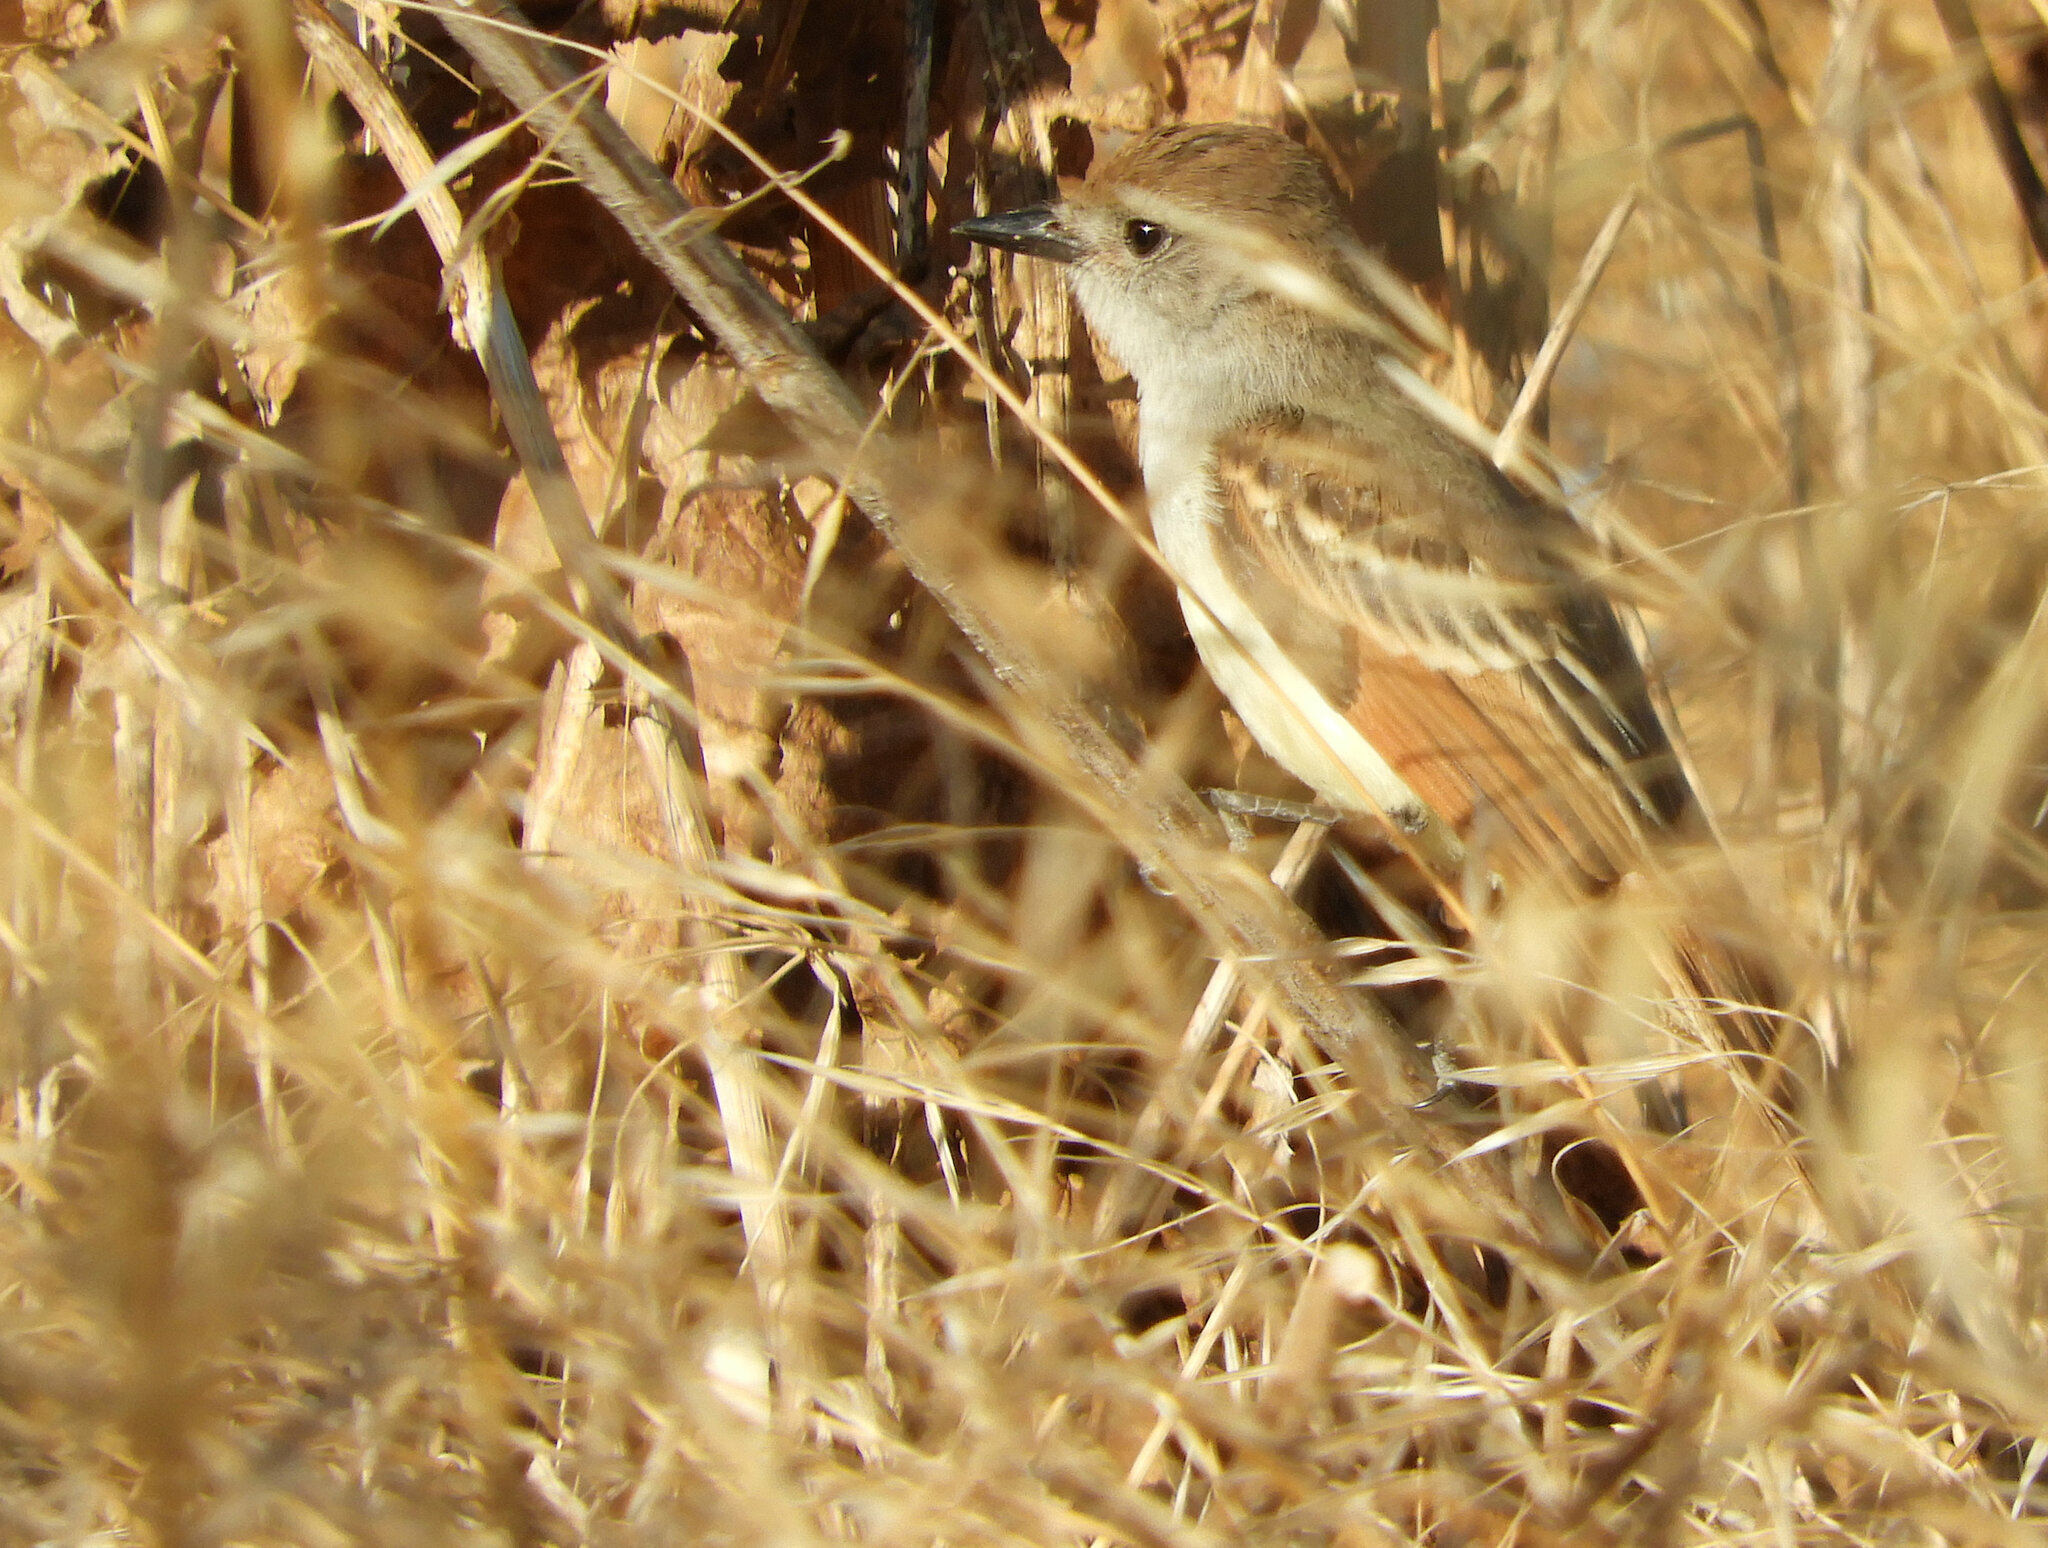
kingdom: Animalia
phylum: Chordata
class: Aves
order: Passeriformes
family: Tyrannidae
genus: Myiarchus
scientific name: Myiarchus cinerascens
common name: Ash-throated flycatcher
